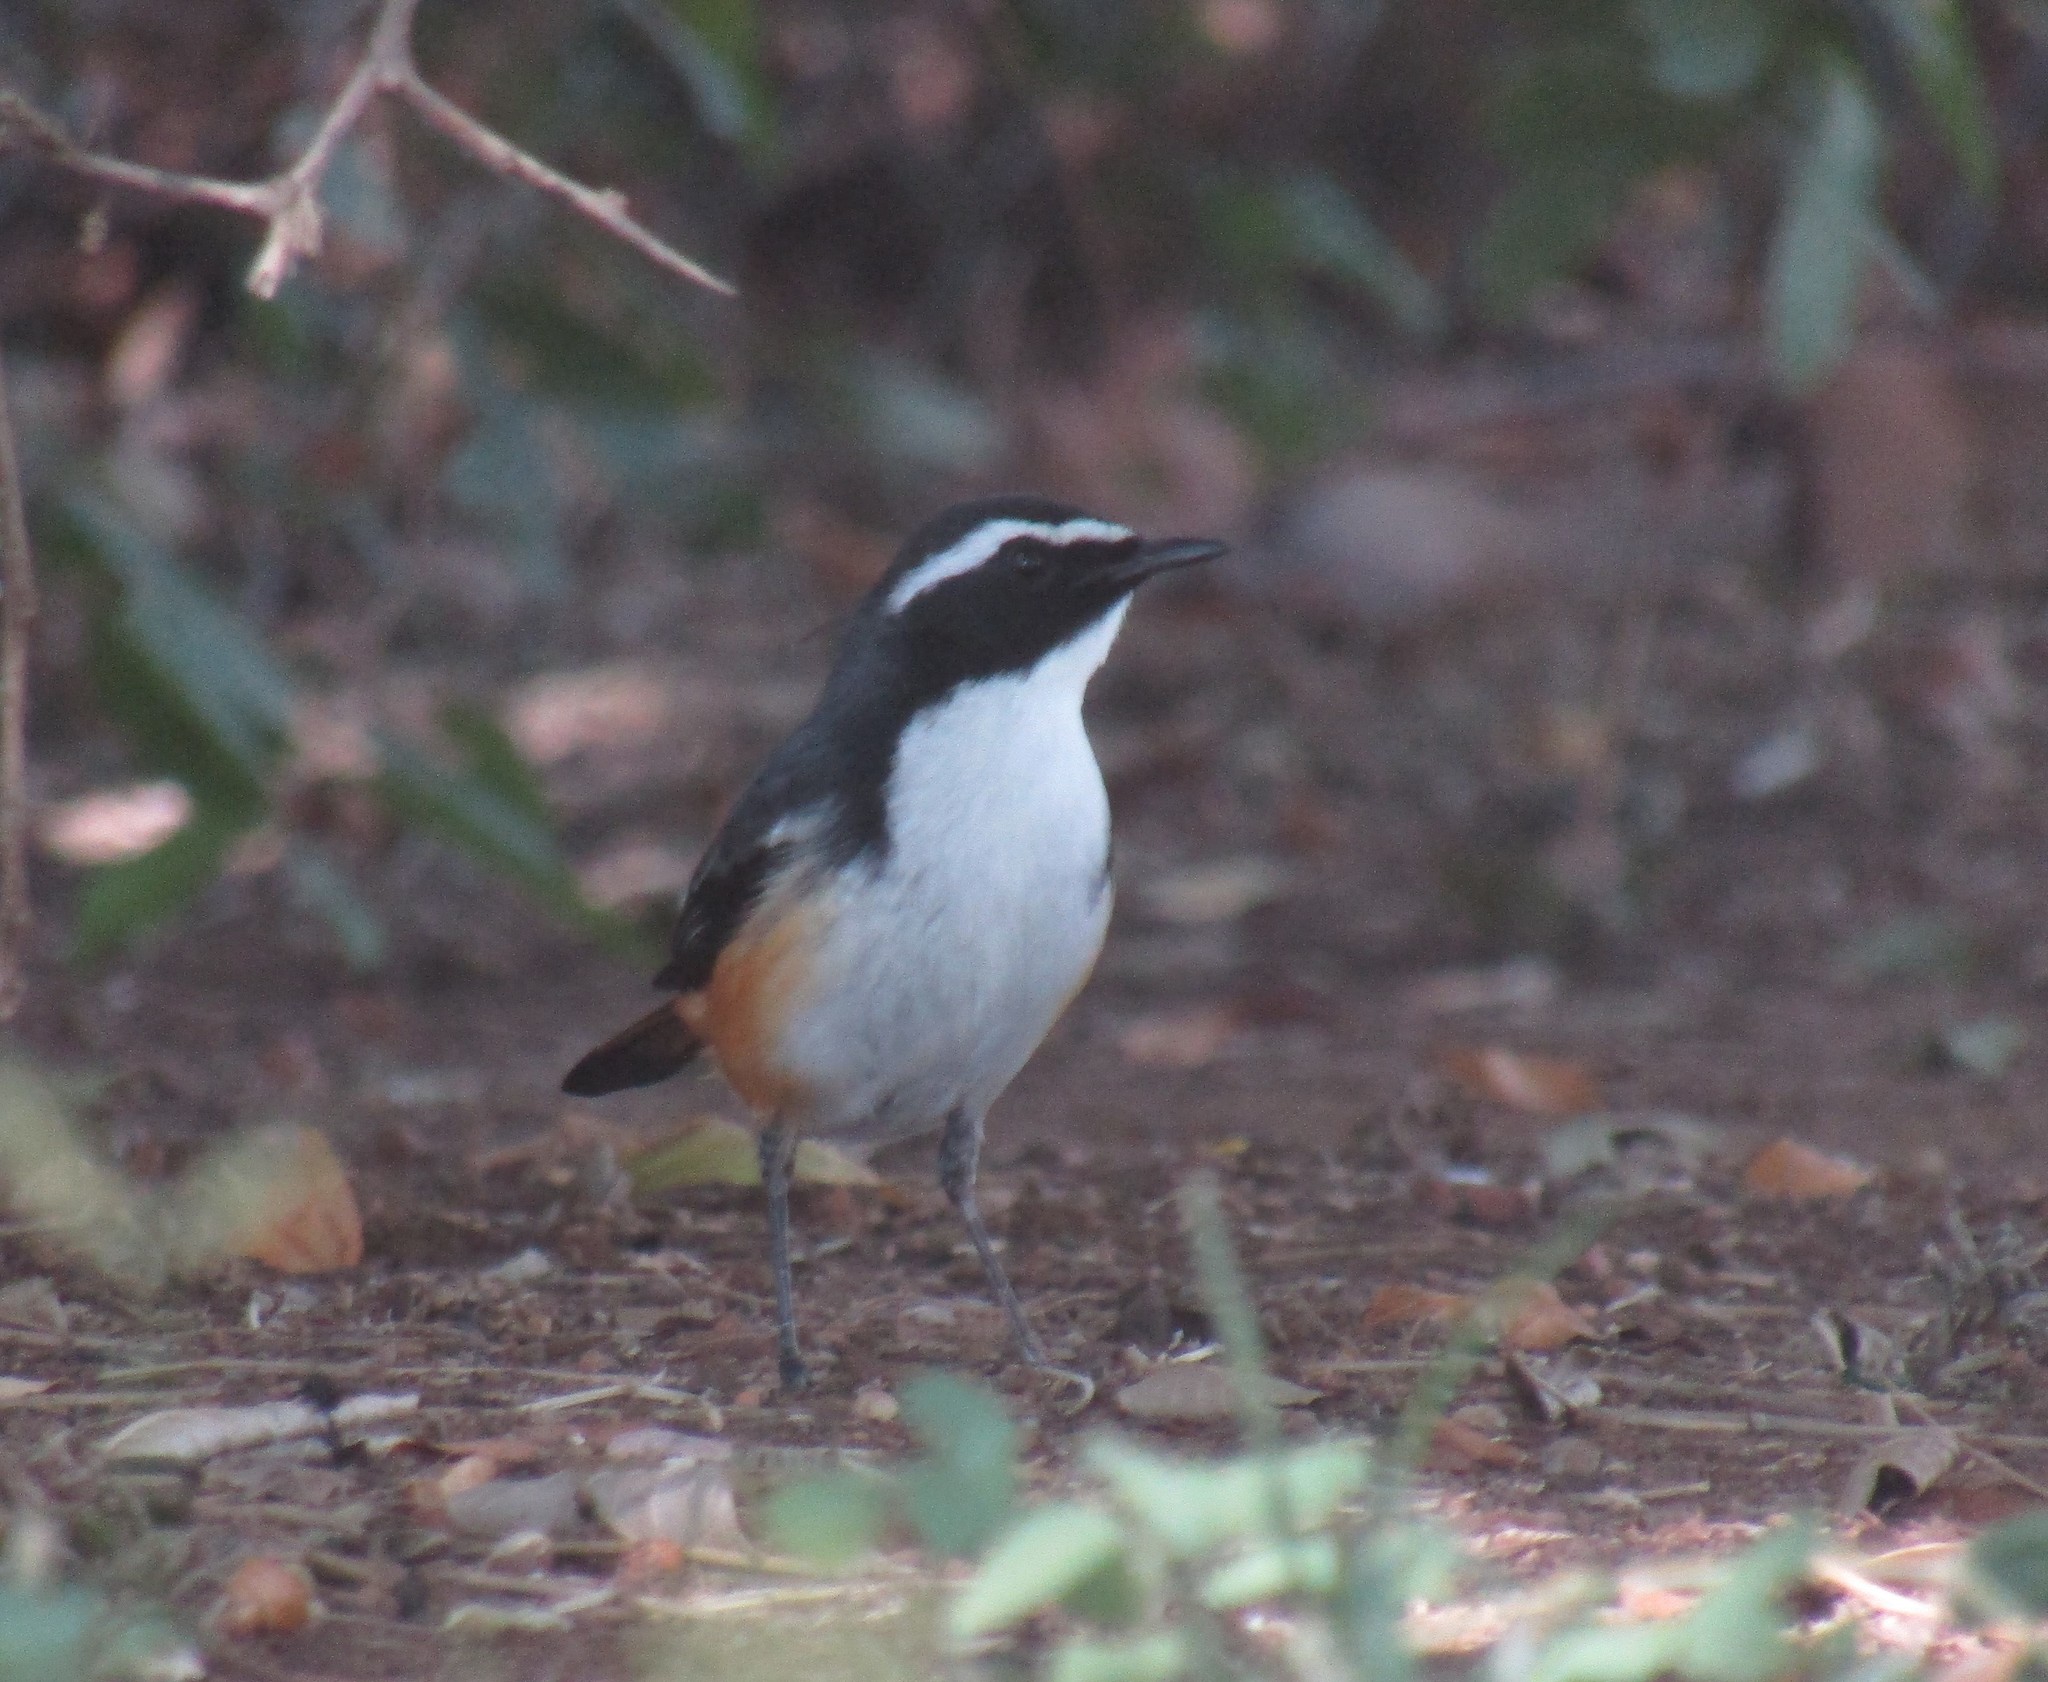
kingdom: Animalia
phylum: Chordata
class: Aves
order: Passeriformes
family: Muscicapidae
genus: Cossypha
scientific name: Cossypha humeralis
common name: White-throated robin-chat
